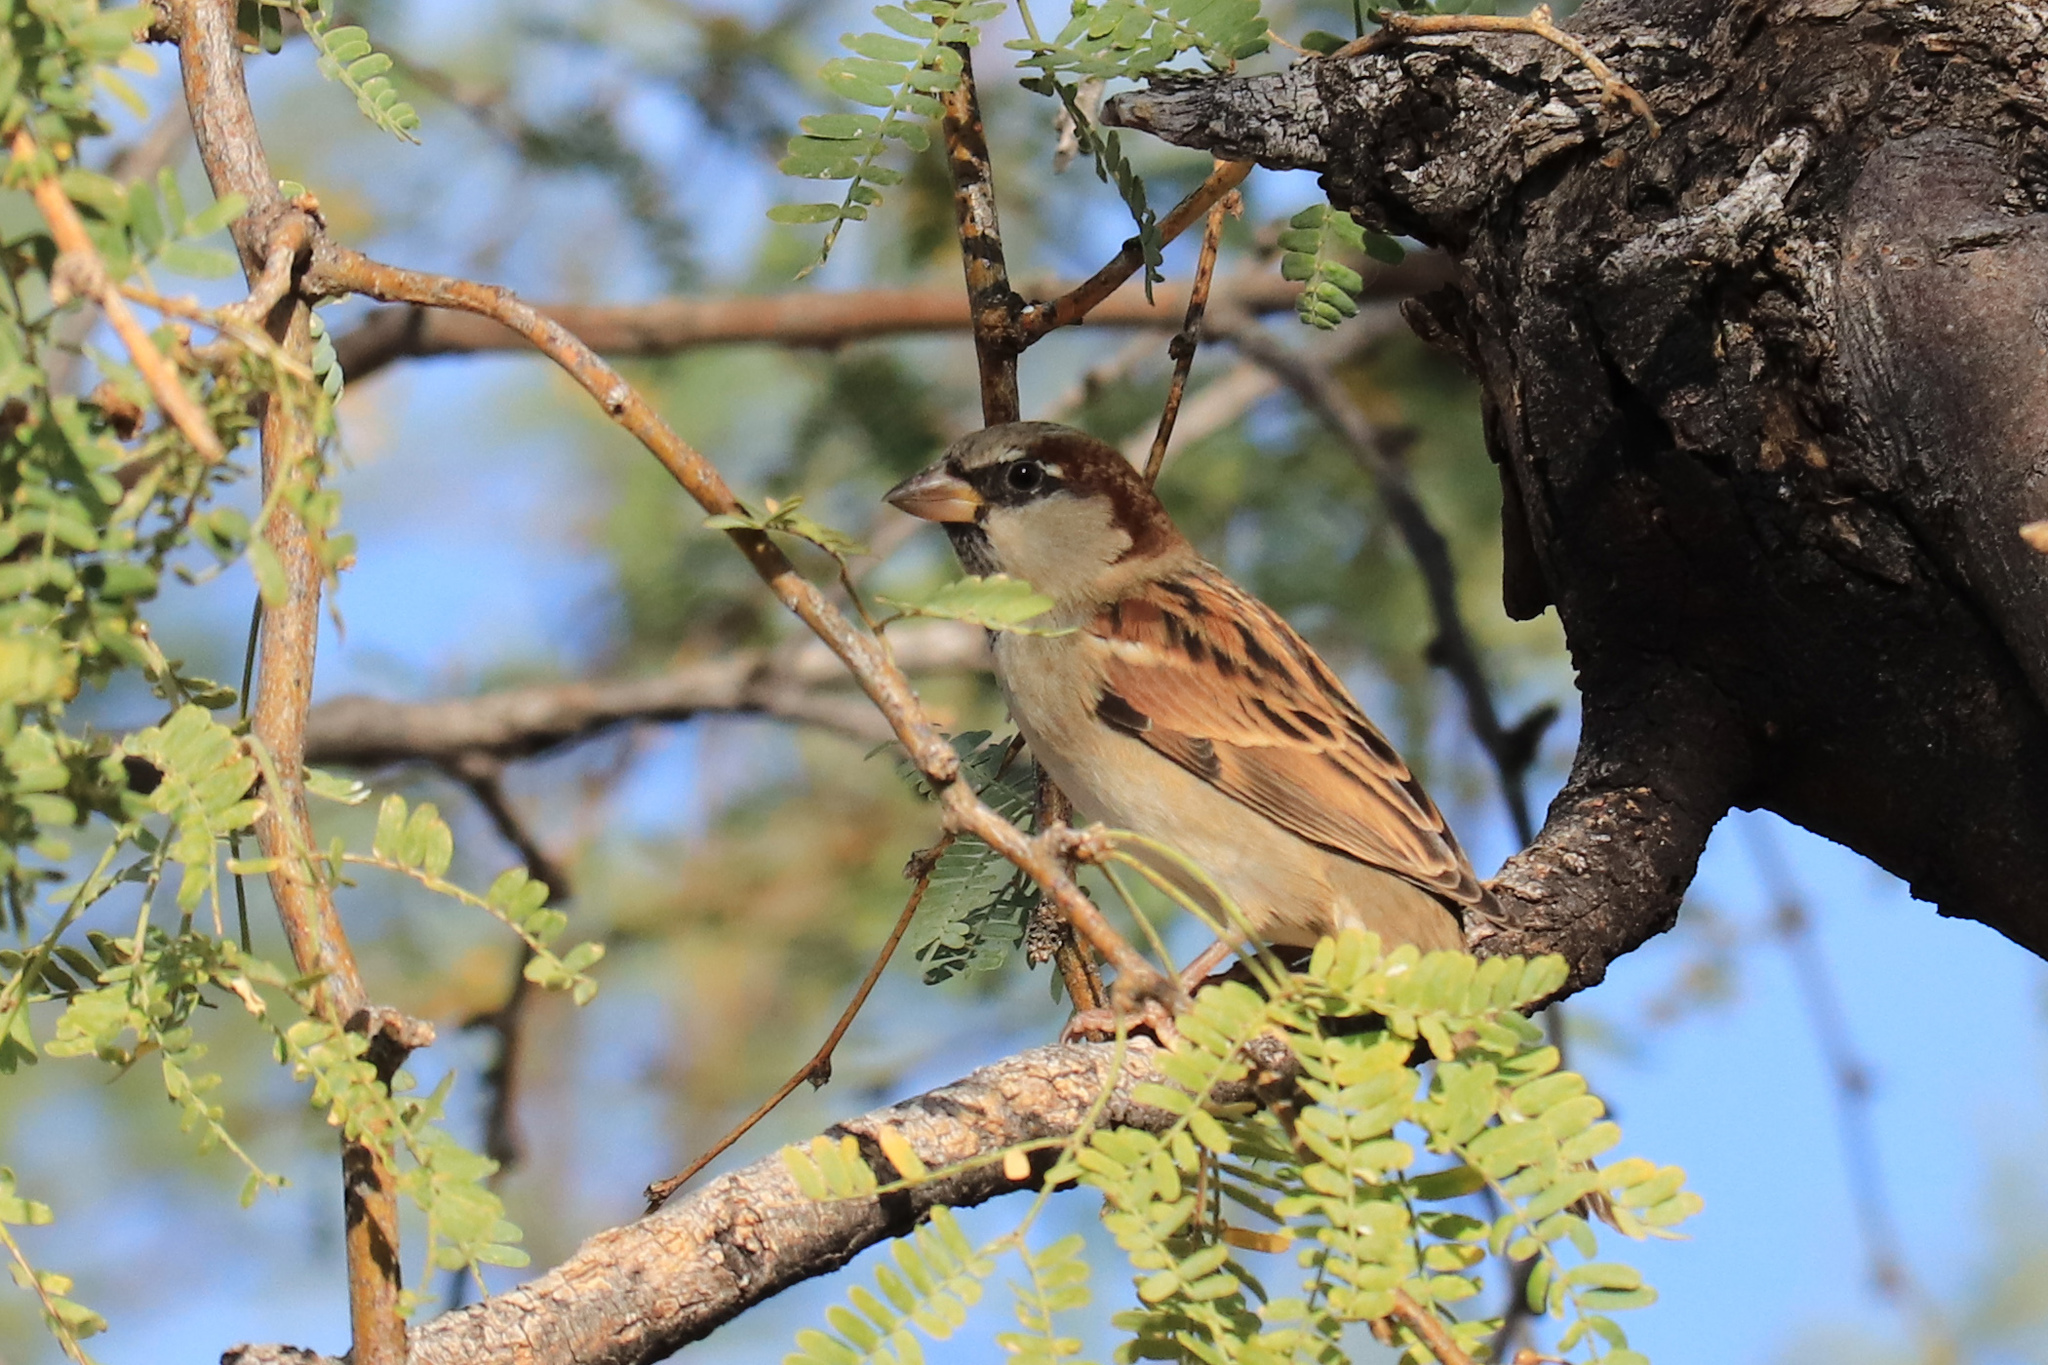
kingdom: Animalia
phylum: Chordata
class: Aves
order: Passeriformes
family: Passeridae
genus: Passer
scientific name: Passer domesticus
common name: House sparrow
